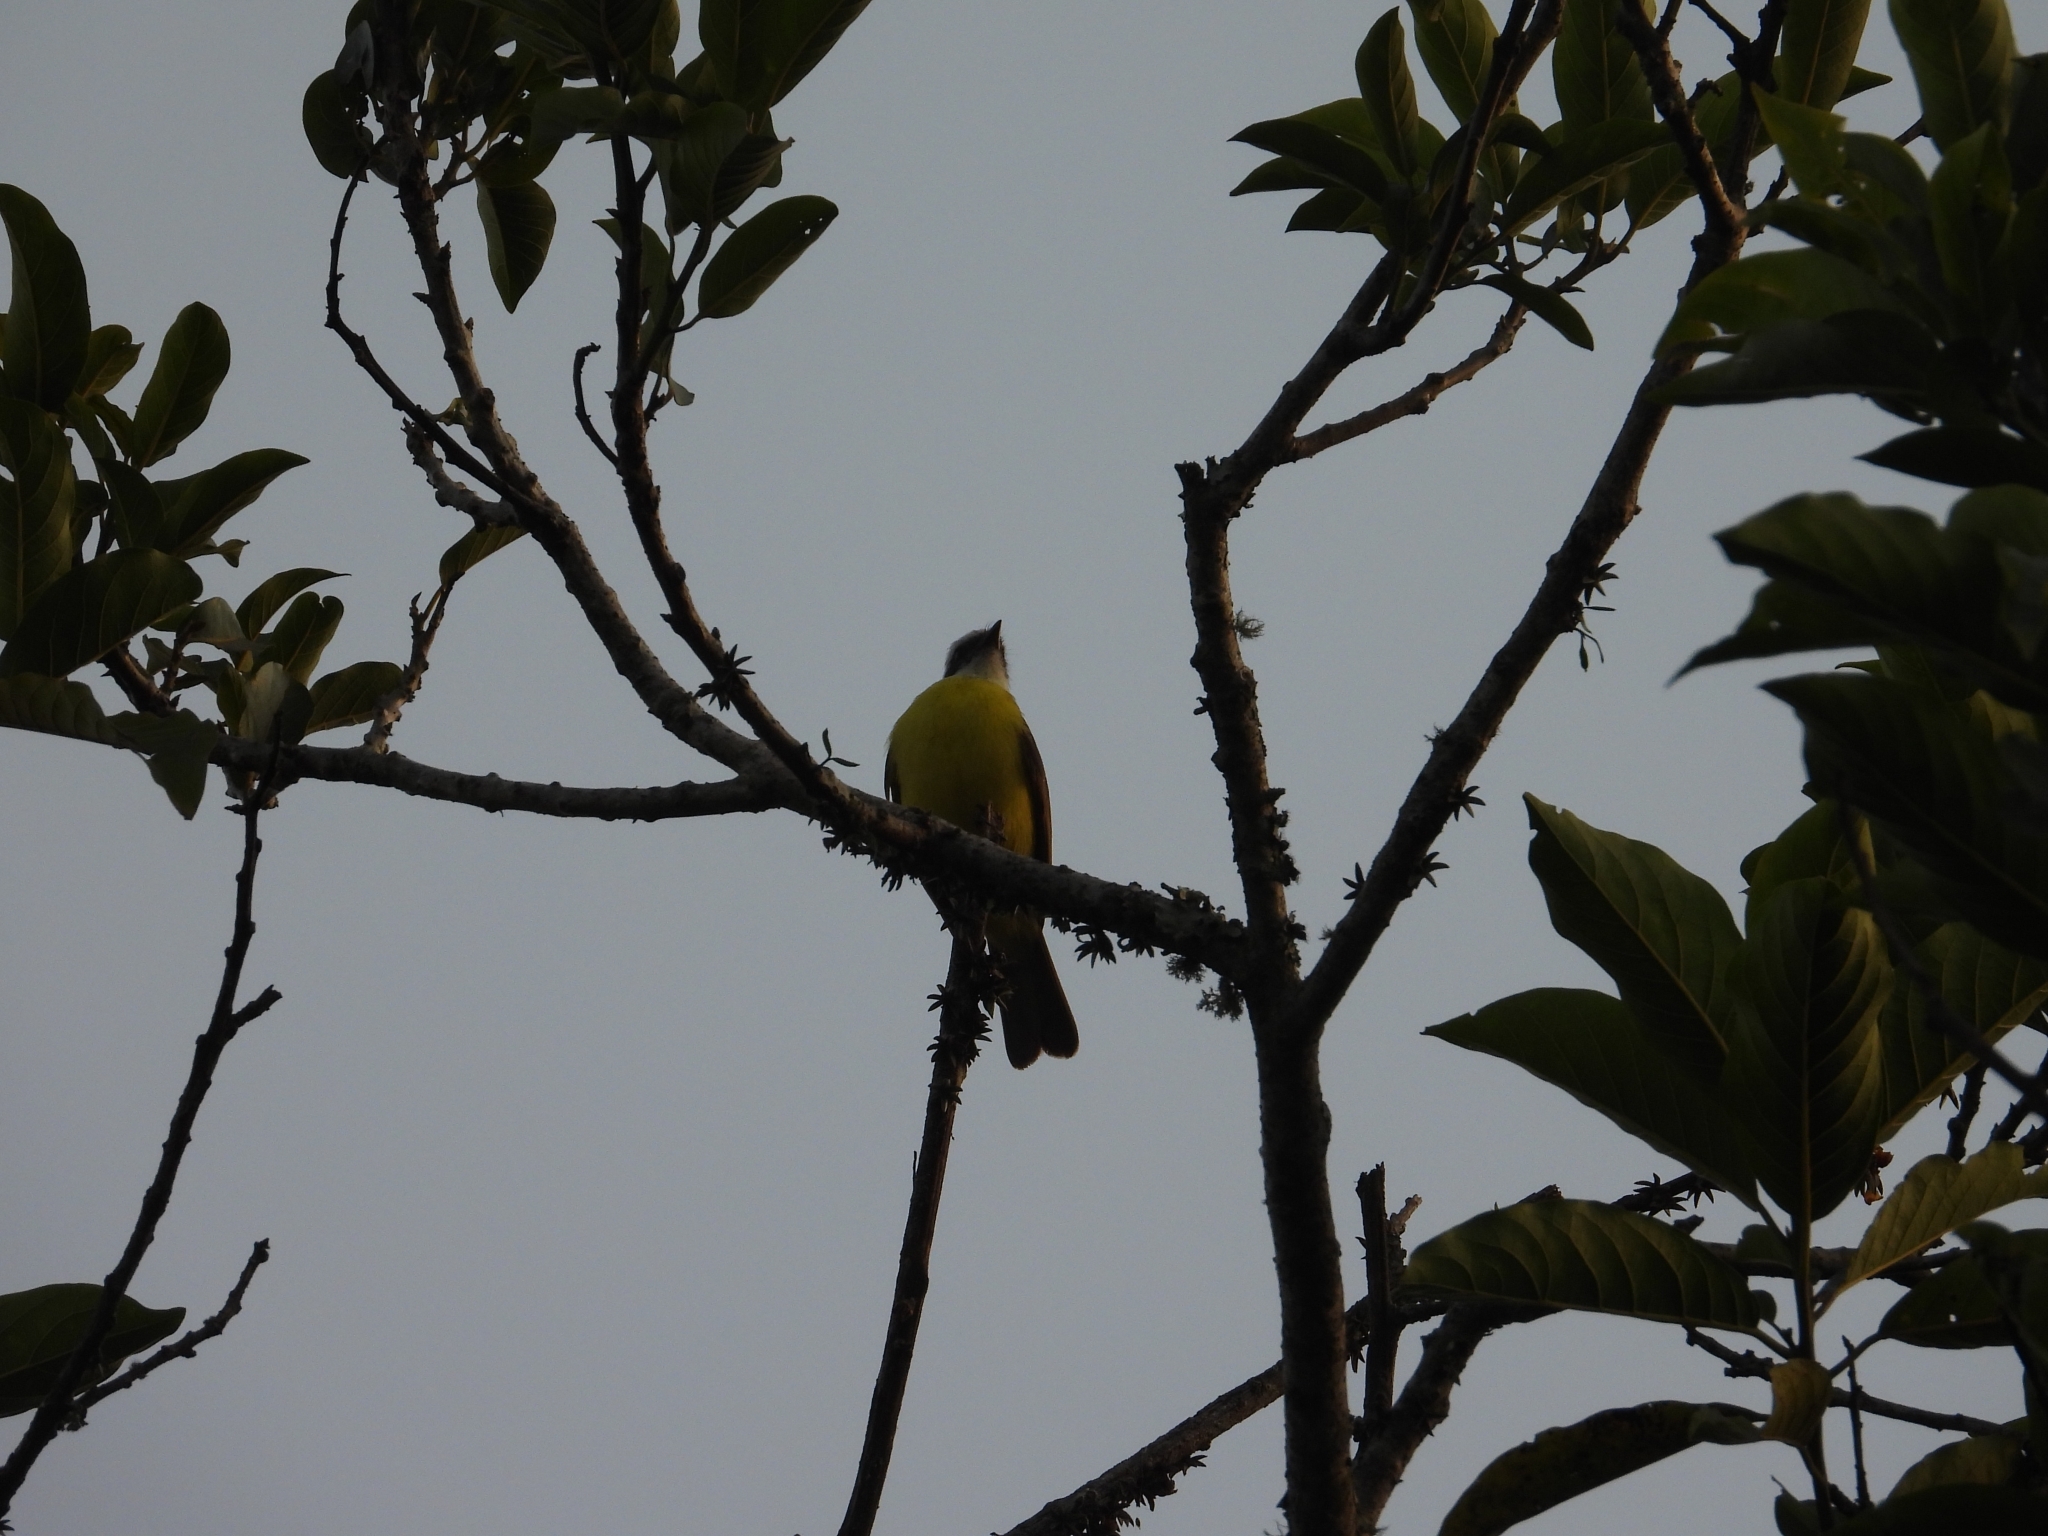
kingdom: Animalia
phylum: Chordata
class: Aves
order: Passeriformes
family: Tyrannidae
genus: Myiozetetes
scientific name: Myiozetetes similis
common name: Social flycatcher
